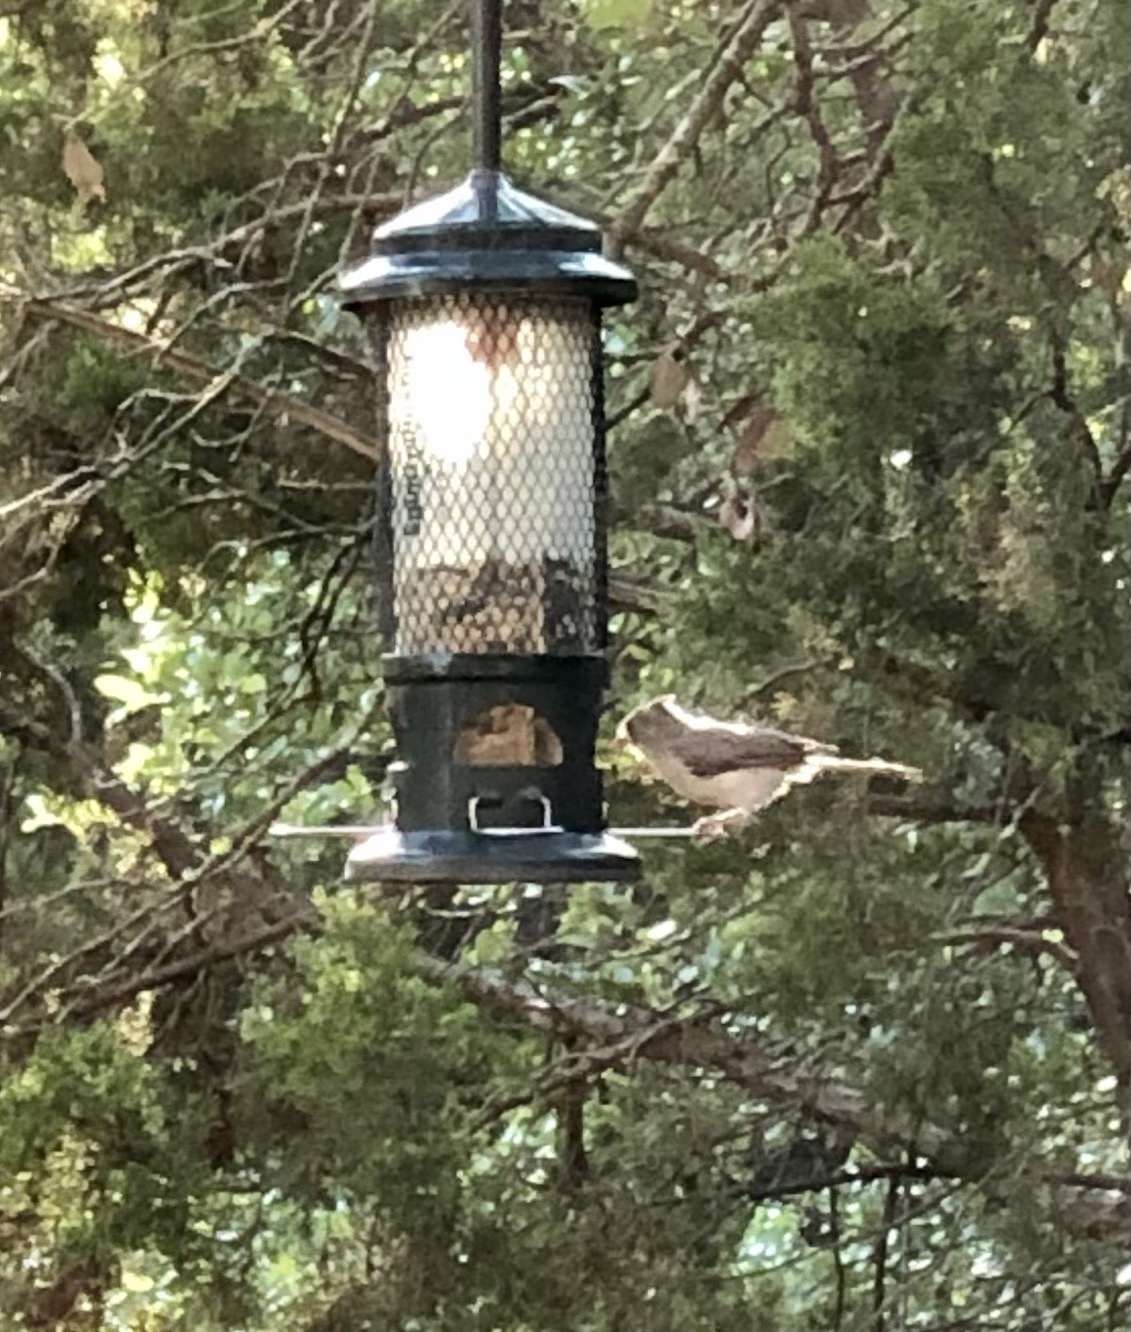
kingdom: Animalia
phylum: Chordata
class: Aves
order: Passeriformes
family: Paridae
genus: Baeolophus
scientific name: Baeolophus atricristatus
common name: Black-crested titmouse
